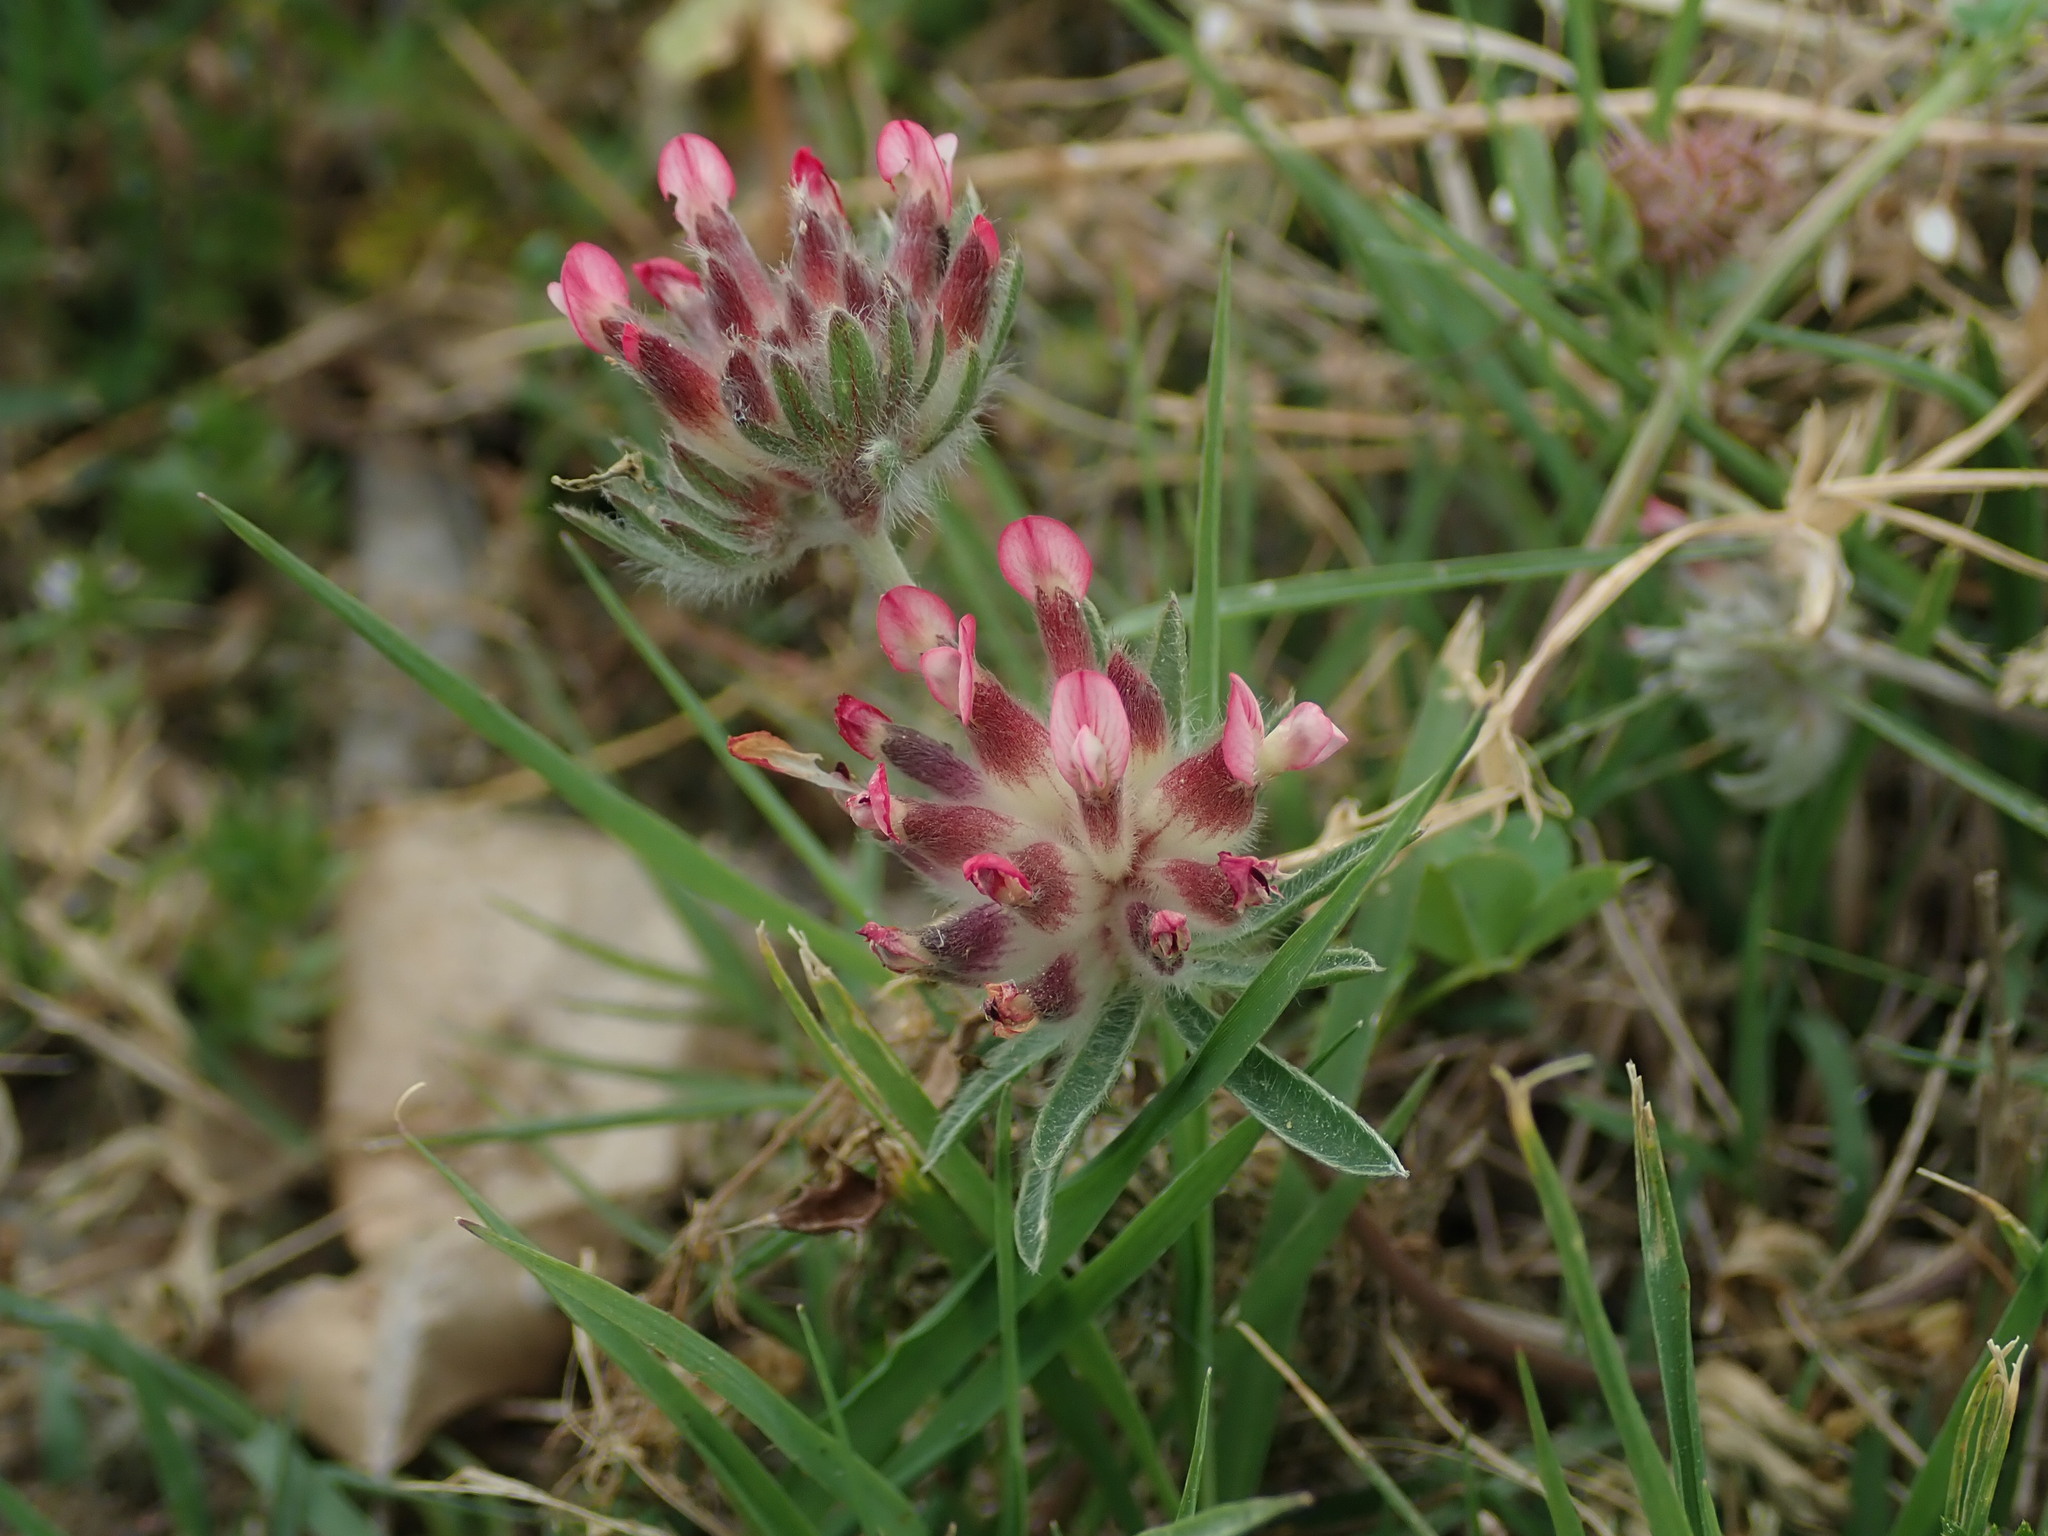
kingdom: Plantae
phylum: Tracheophyta
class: Magnoliopsida
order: Fabales
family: Fabaceae
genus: Anthyllis
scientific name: Anthyllis vulneraria
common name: Kidney vetch
